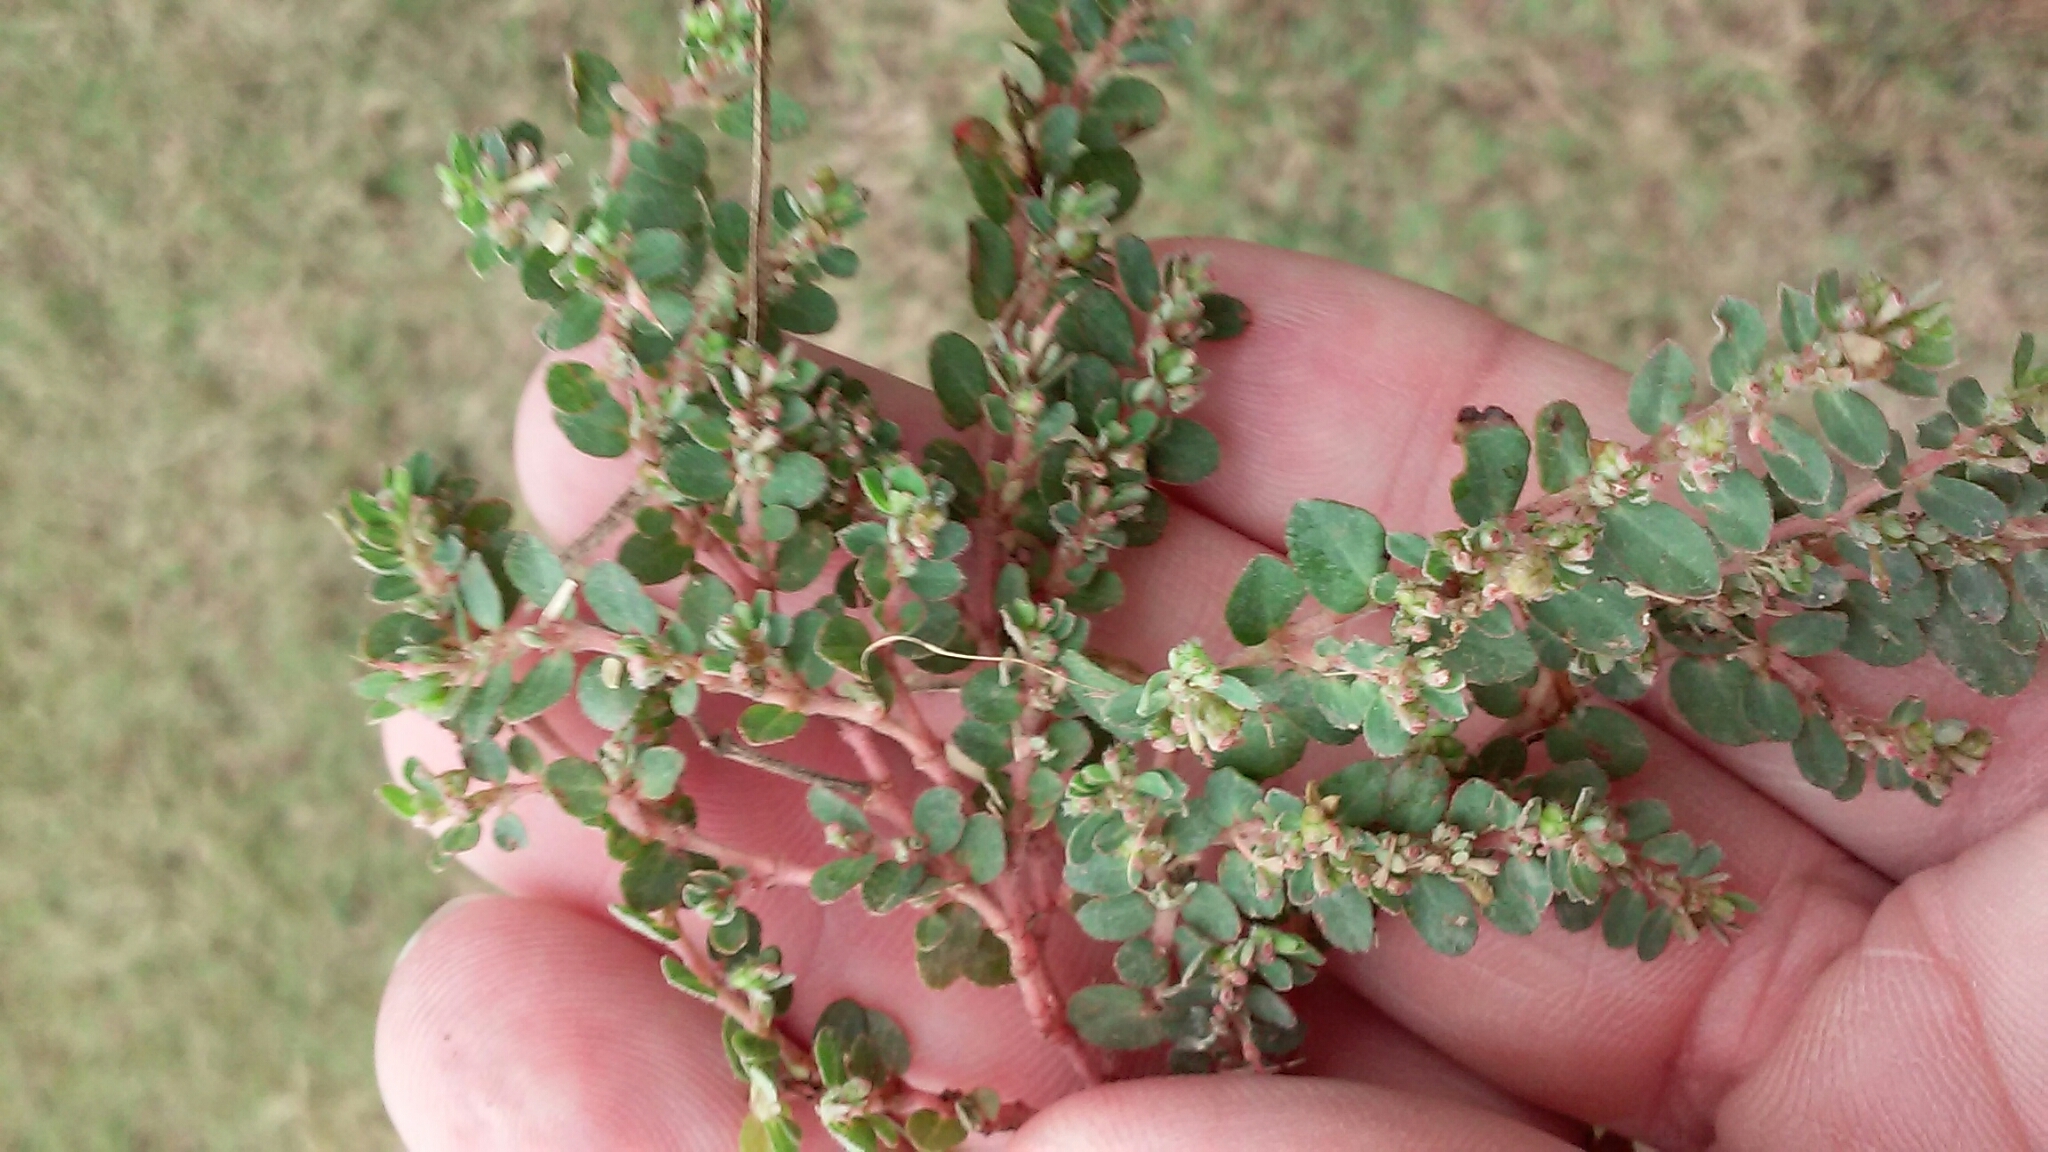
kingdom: Plantae
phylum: Tracheophyta
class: Magnoliopsida
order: Malpighiales
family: Euphorbiaceae
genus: Euphorbia
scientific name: Euphorbia prostrata
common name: Prostrate sandmat
